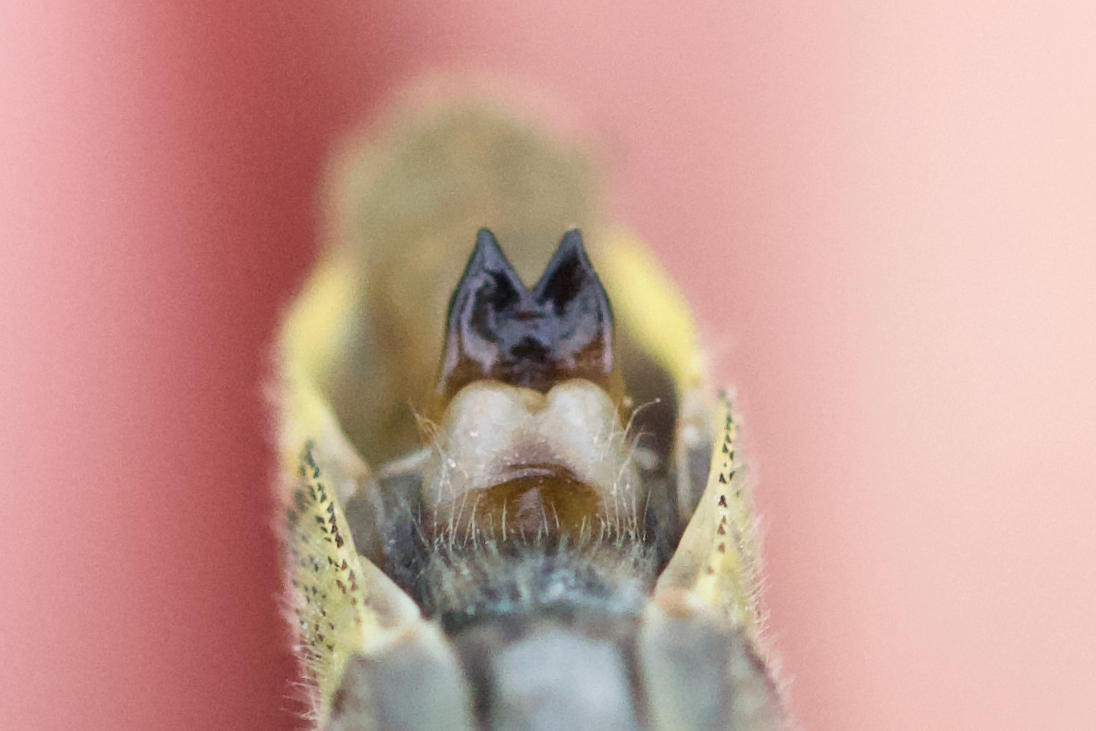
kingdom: Animalia
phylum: Arthropoda
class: Insecta
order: Odonata
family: Gomphidae
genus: Phanogomphus
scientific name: Phanogomphus descriptus
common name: Harpoon clubtail
